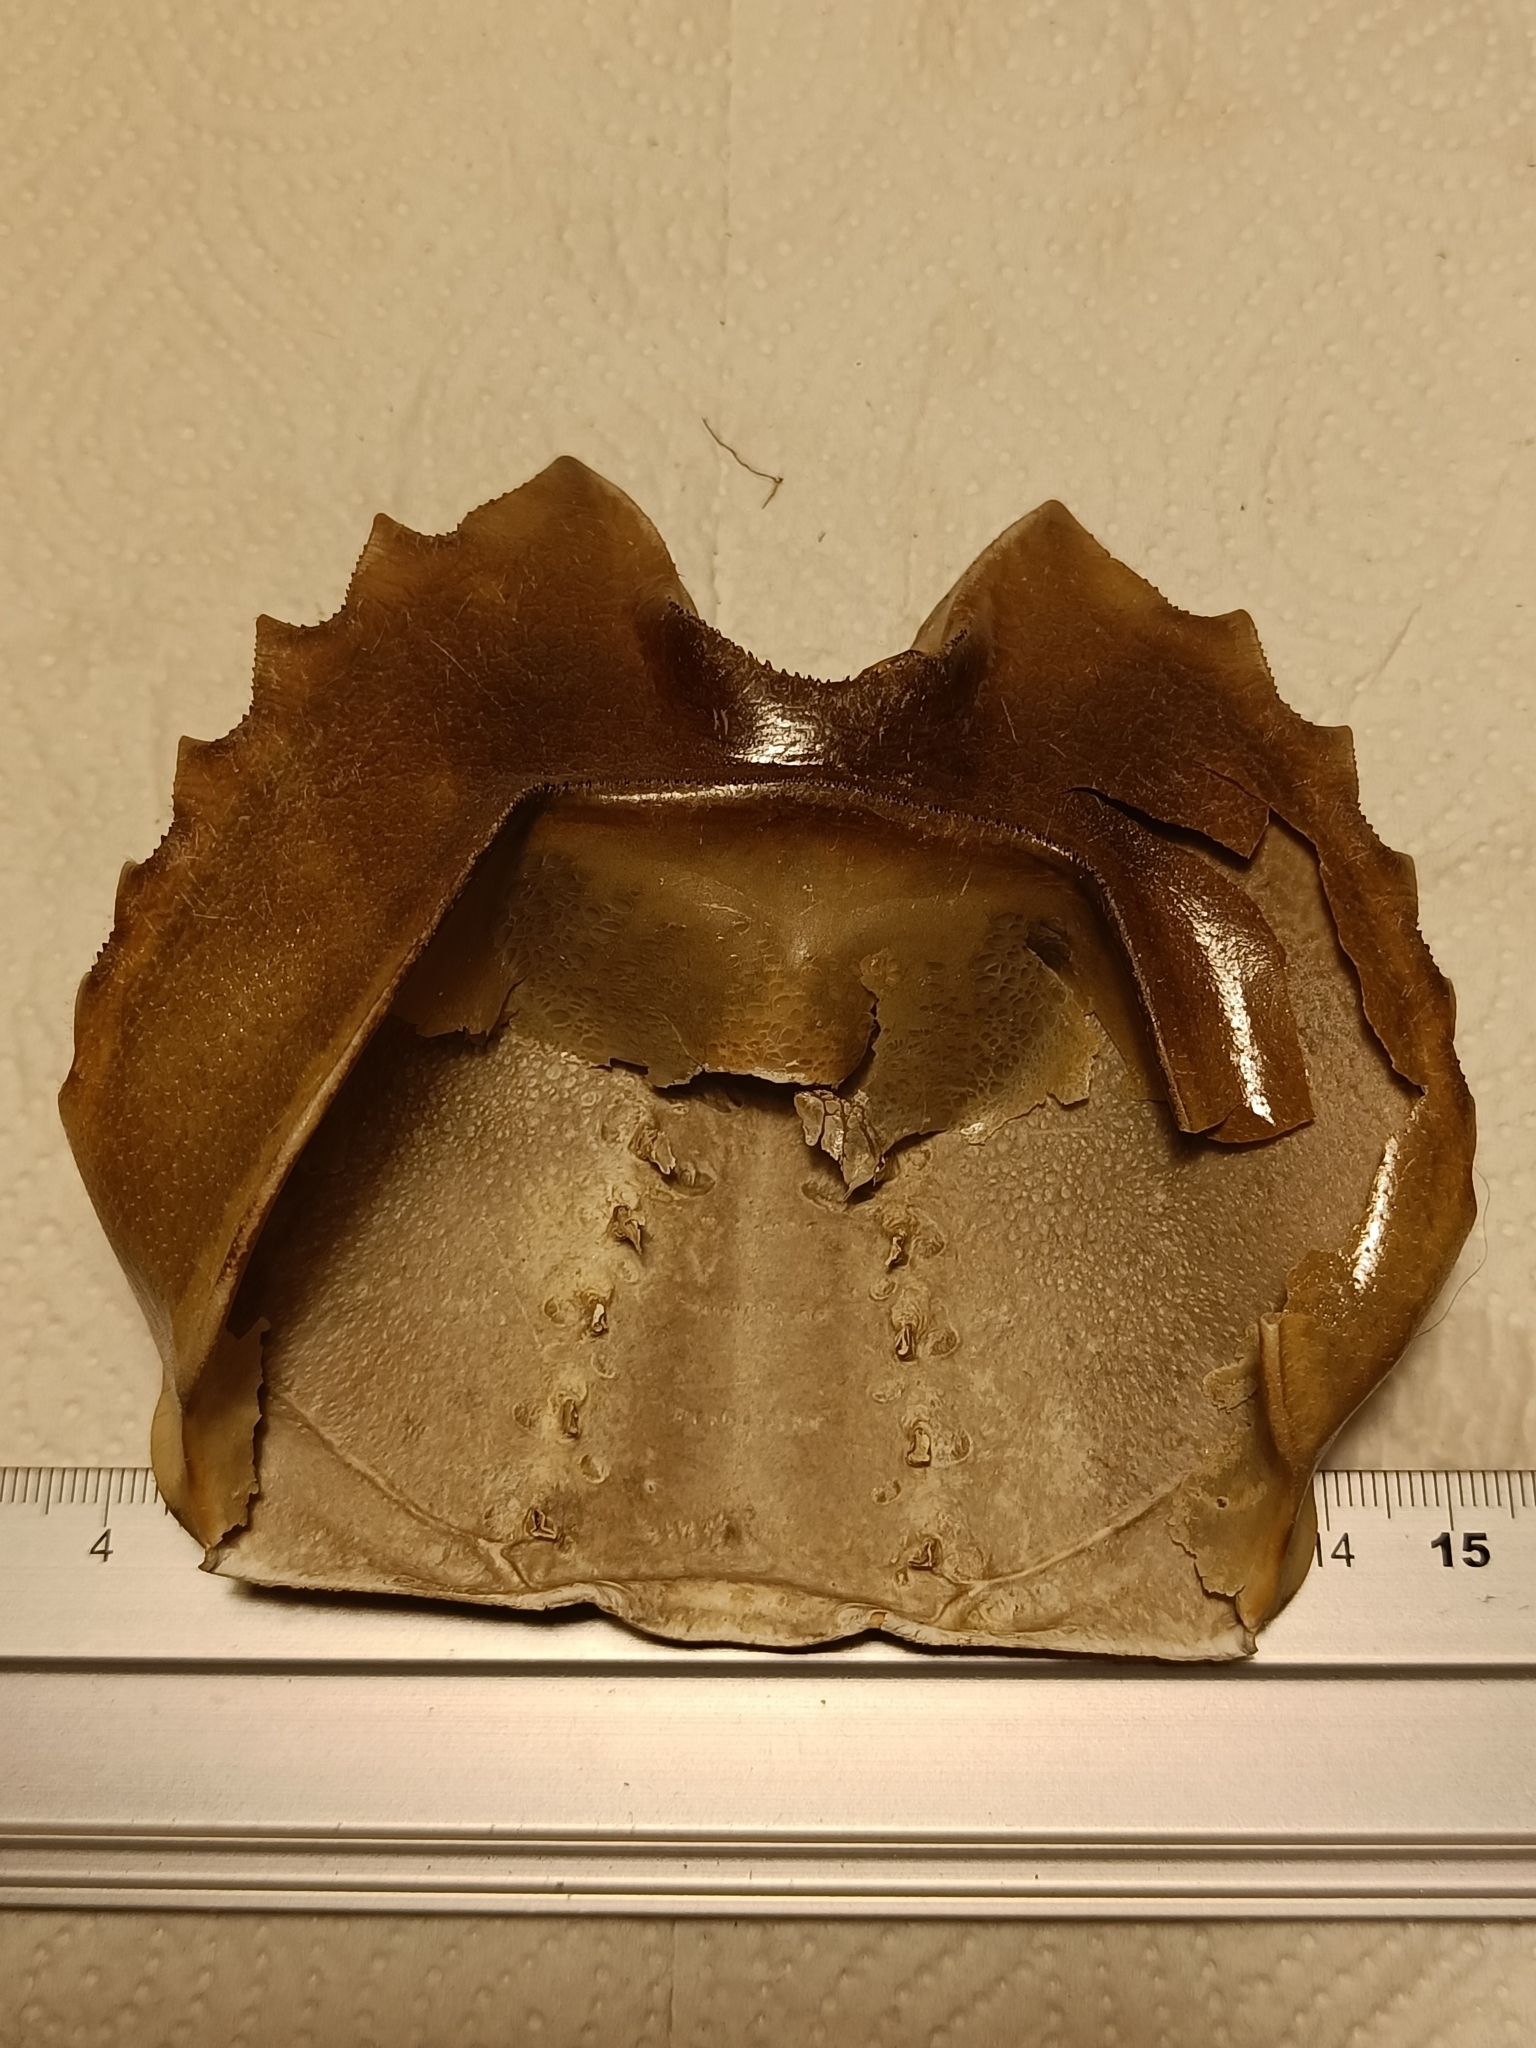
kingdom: Animalia
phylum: Arthropoda
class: Merostomata
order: Xiphosurida
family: Limulidae
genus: Limulus
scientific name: Limulus polyphemus
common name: Horseshoe crab
